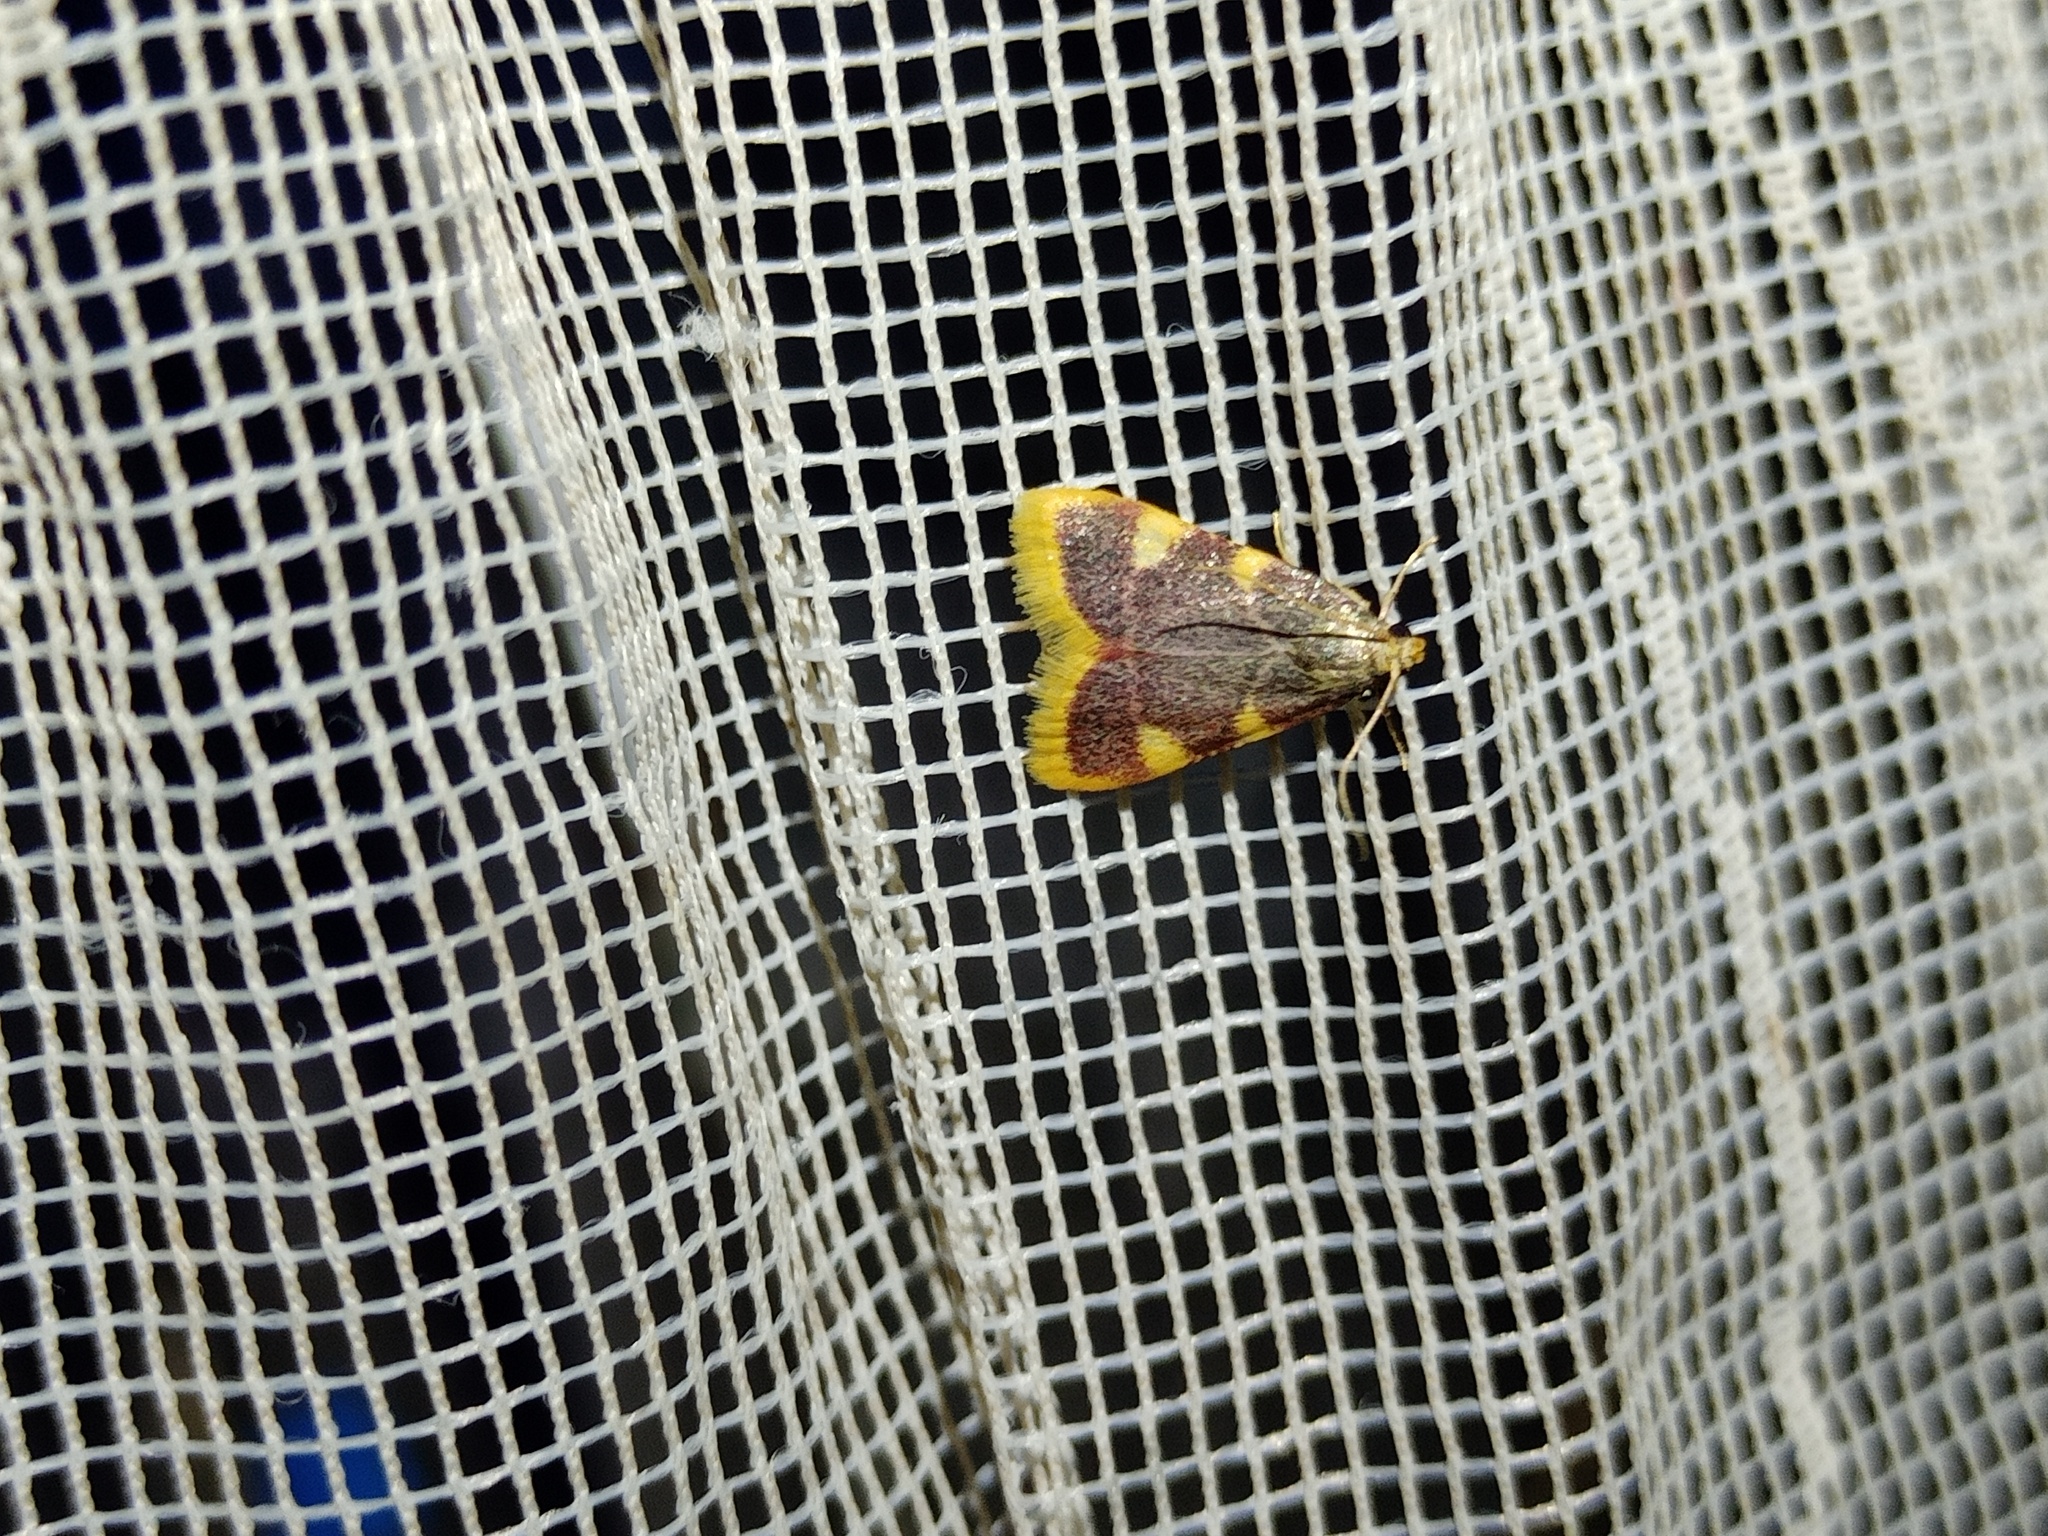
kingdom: Animalia
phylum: Arthropoda
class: Insecta
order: Lepidoptera
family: Pyralidae
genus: Hypsopygia
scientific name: Hypsopygia costalis
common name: Gold triangle
